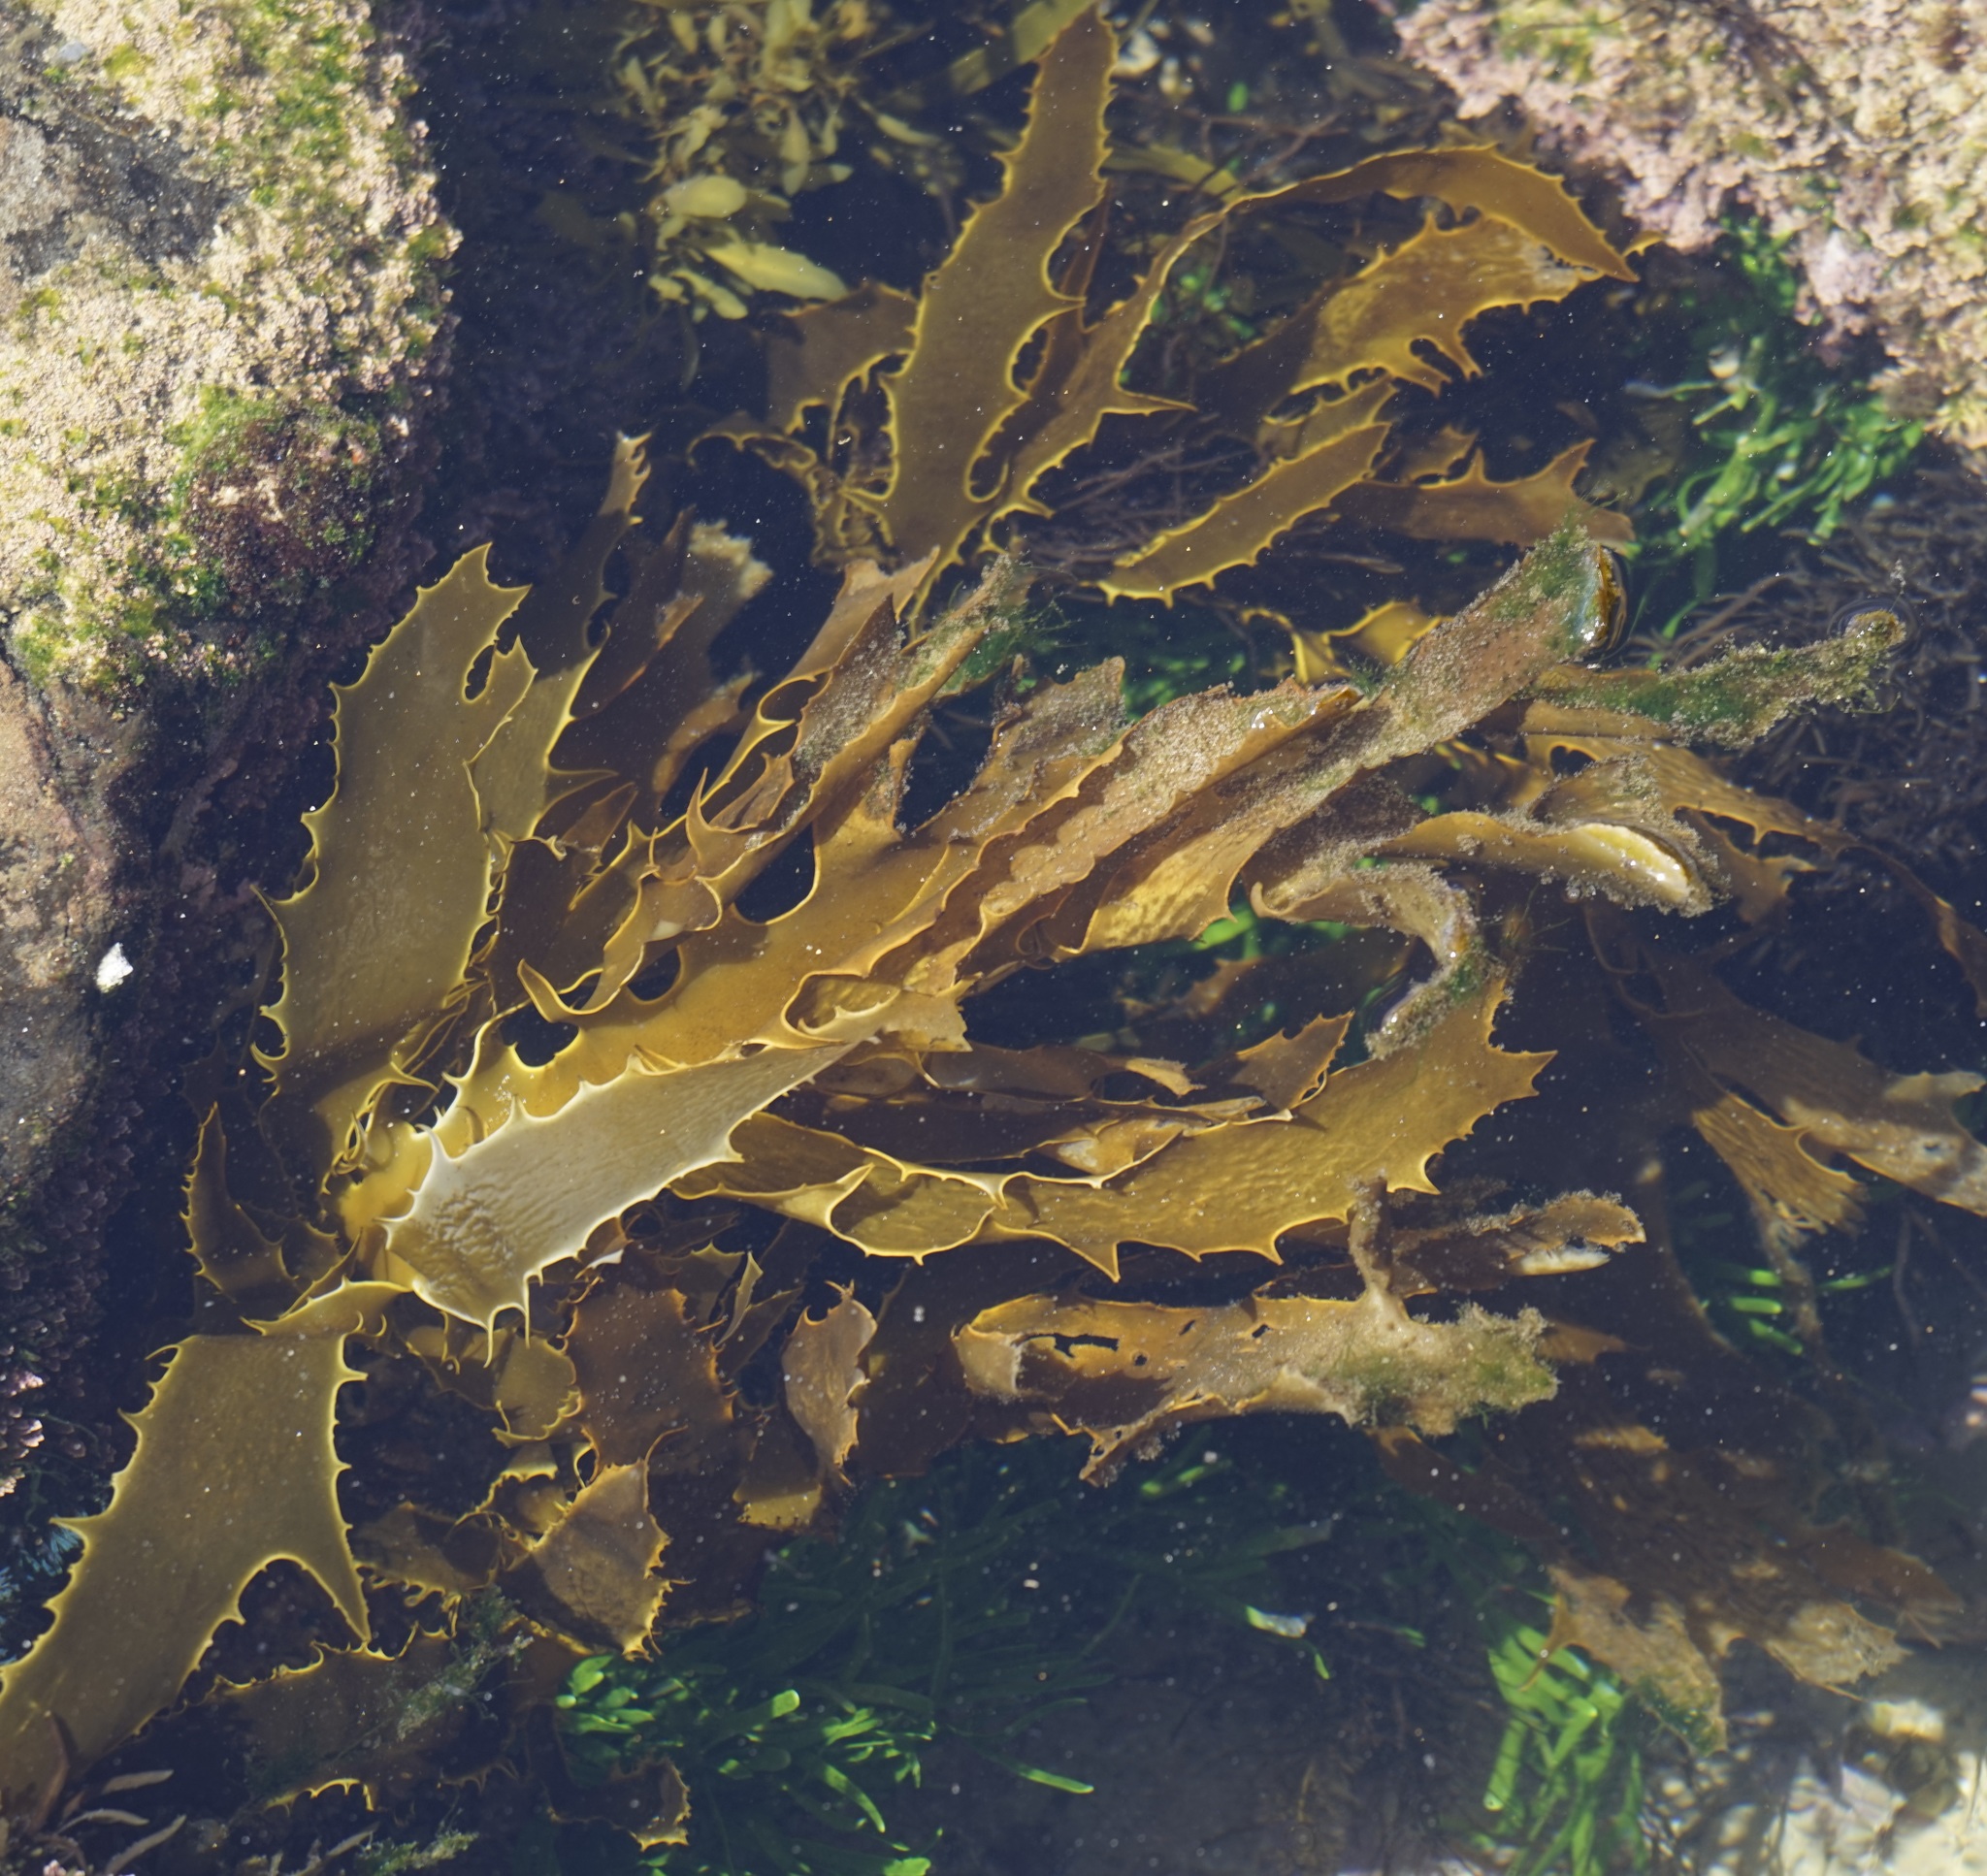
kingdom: Chromista
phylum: Ochrophyta
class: Phaeophyceae
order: Laminariales
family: Lessoniaceae
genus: Ecklonia
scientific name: Ecklonia radiata
